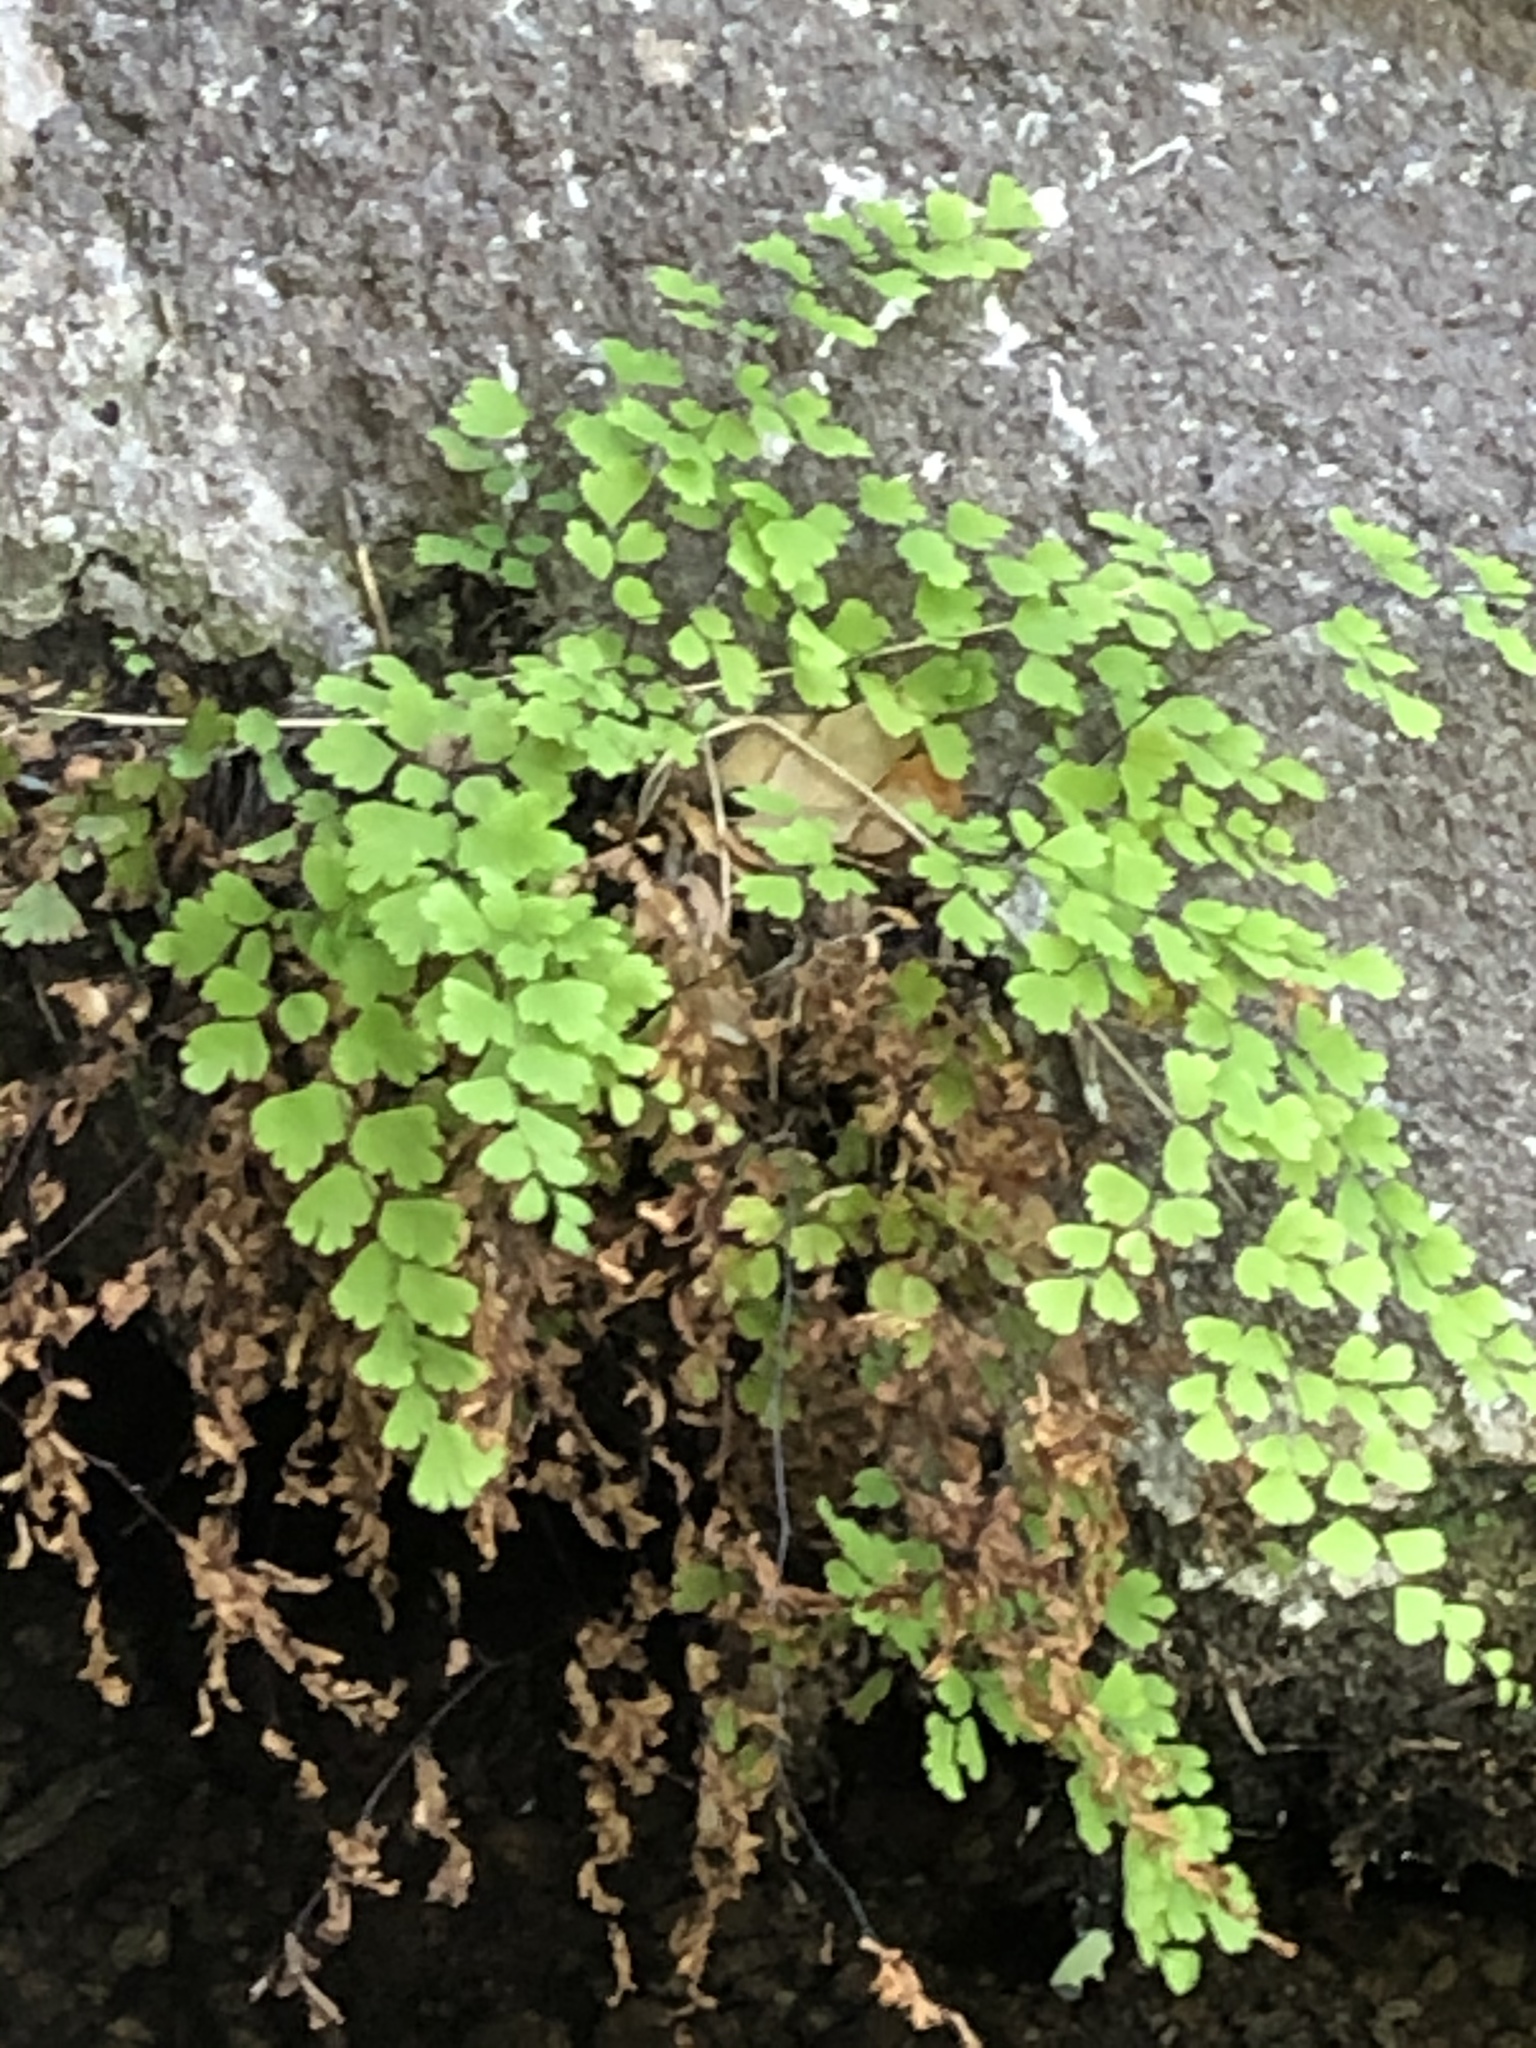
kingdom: Plantae
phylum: Tracheophyta
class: Polypodiopsida
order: Polypodiales
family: Pteridaceae
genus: Adiantum
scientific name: Adiantum capillus-veneris
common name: Maidenhair fern
